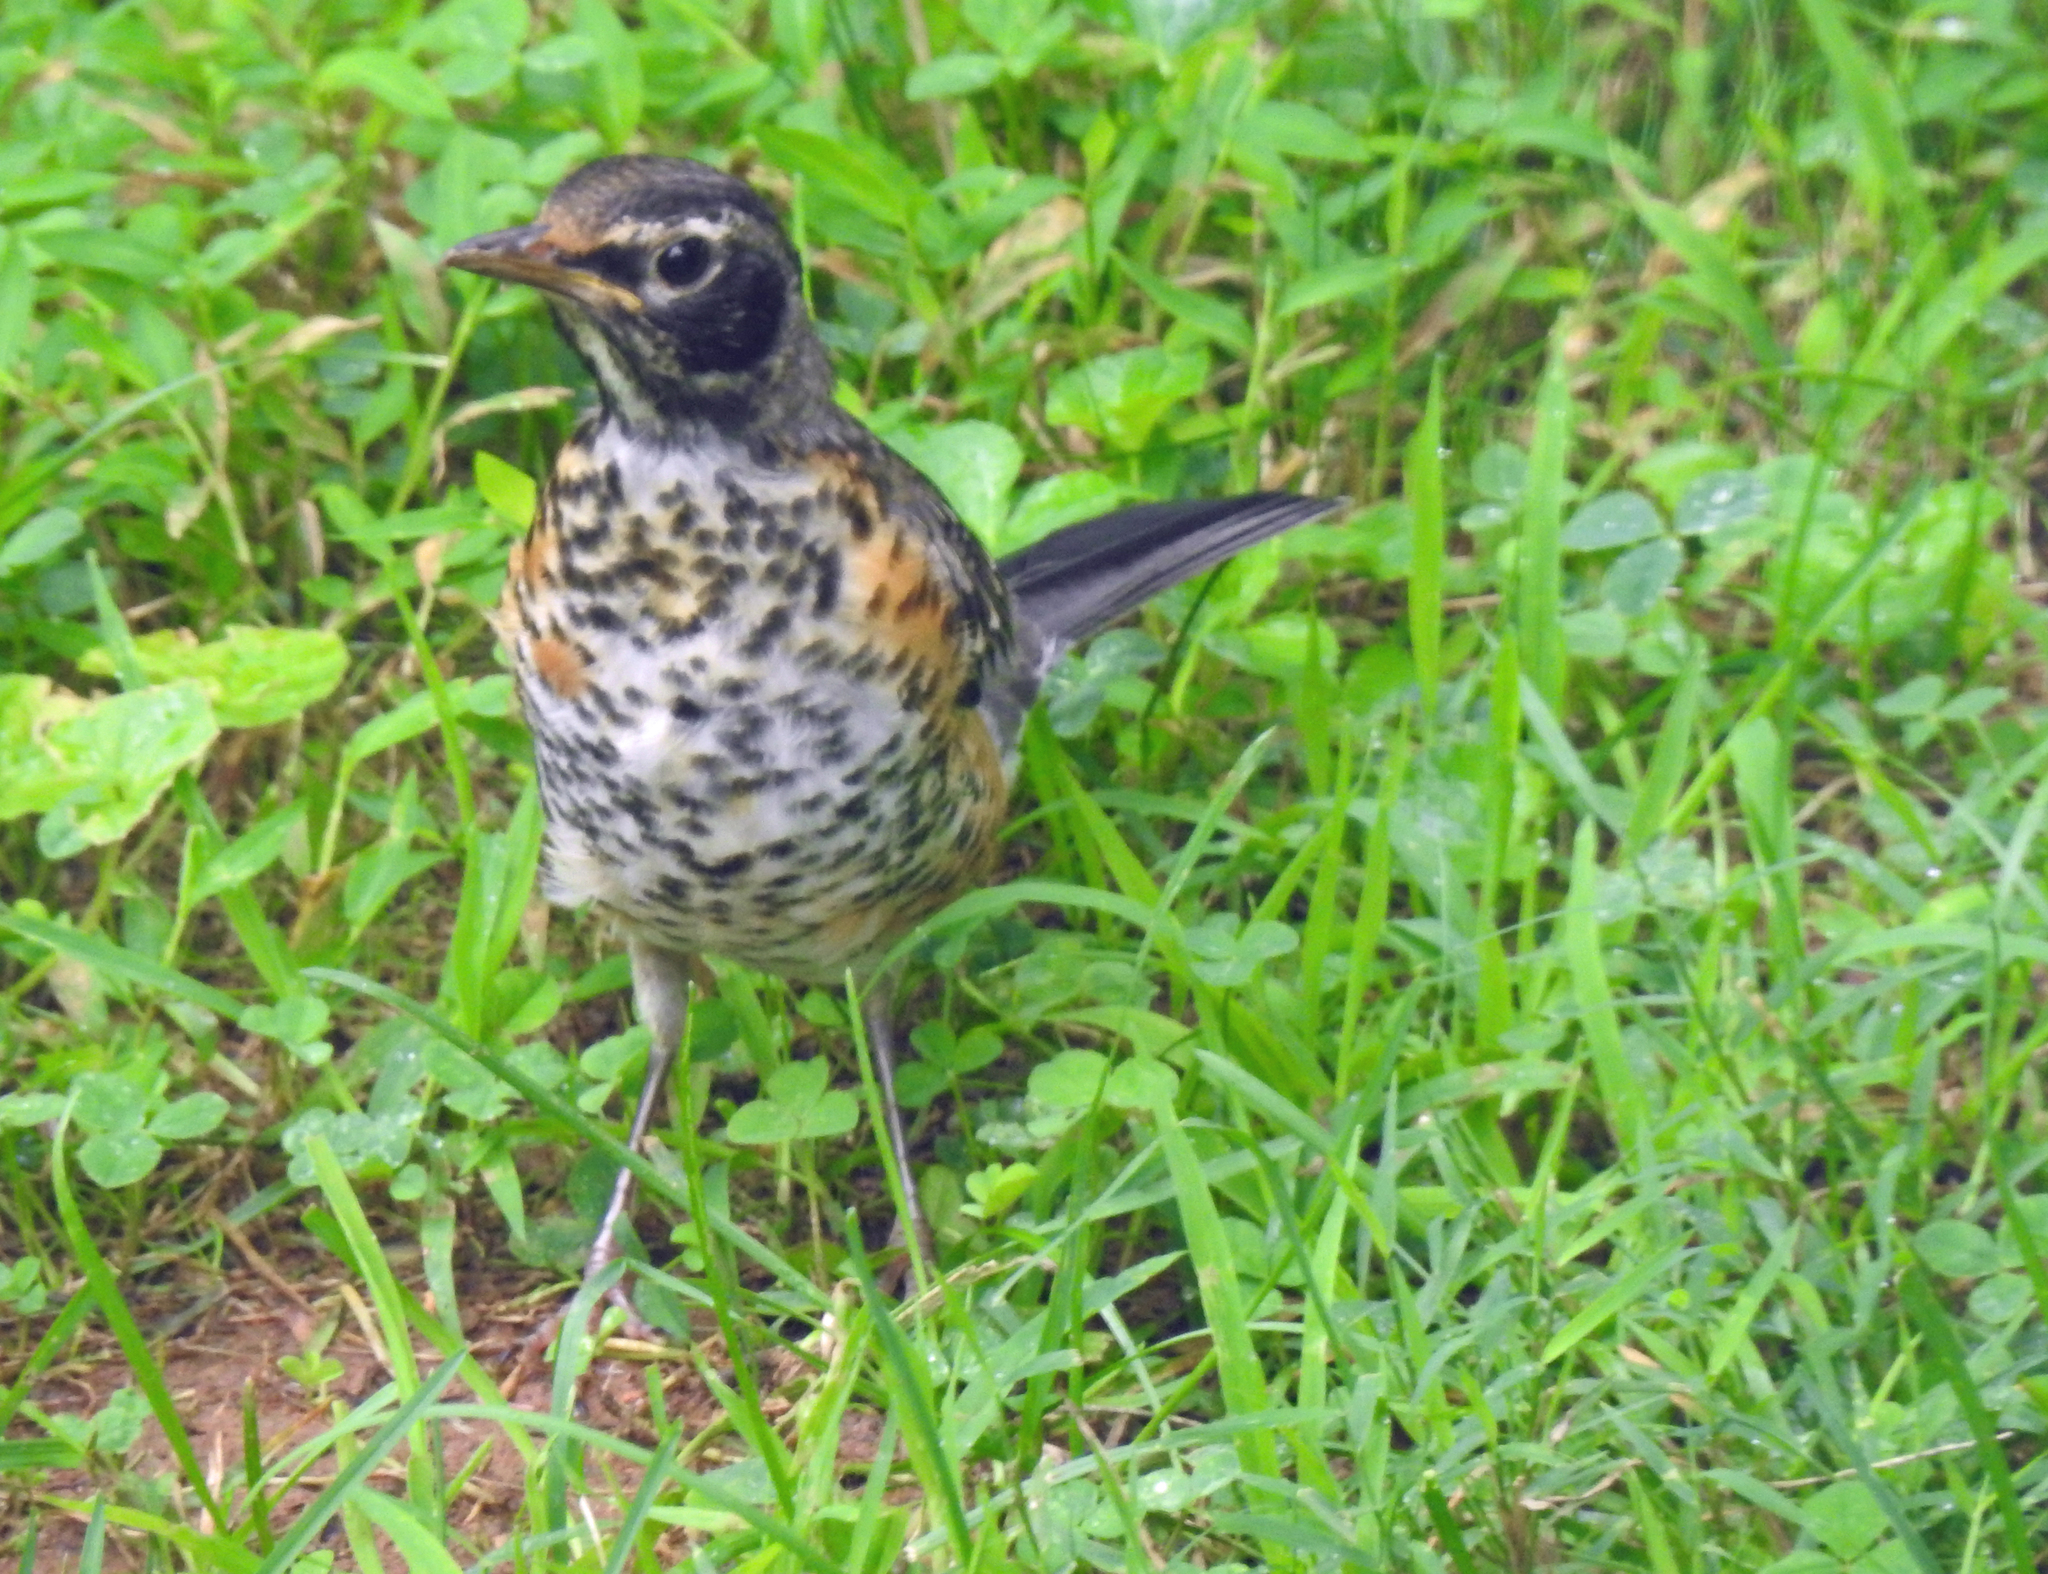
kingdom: Animalia
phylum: Chordata
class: Aves
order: Passeriformes
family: Turdidae
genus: Turdus
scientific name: Turdus migratorius
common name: American robin
